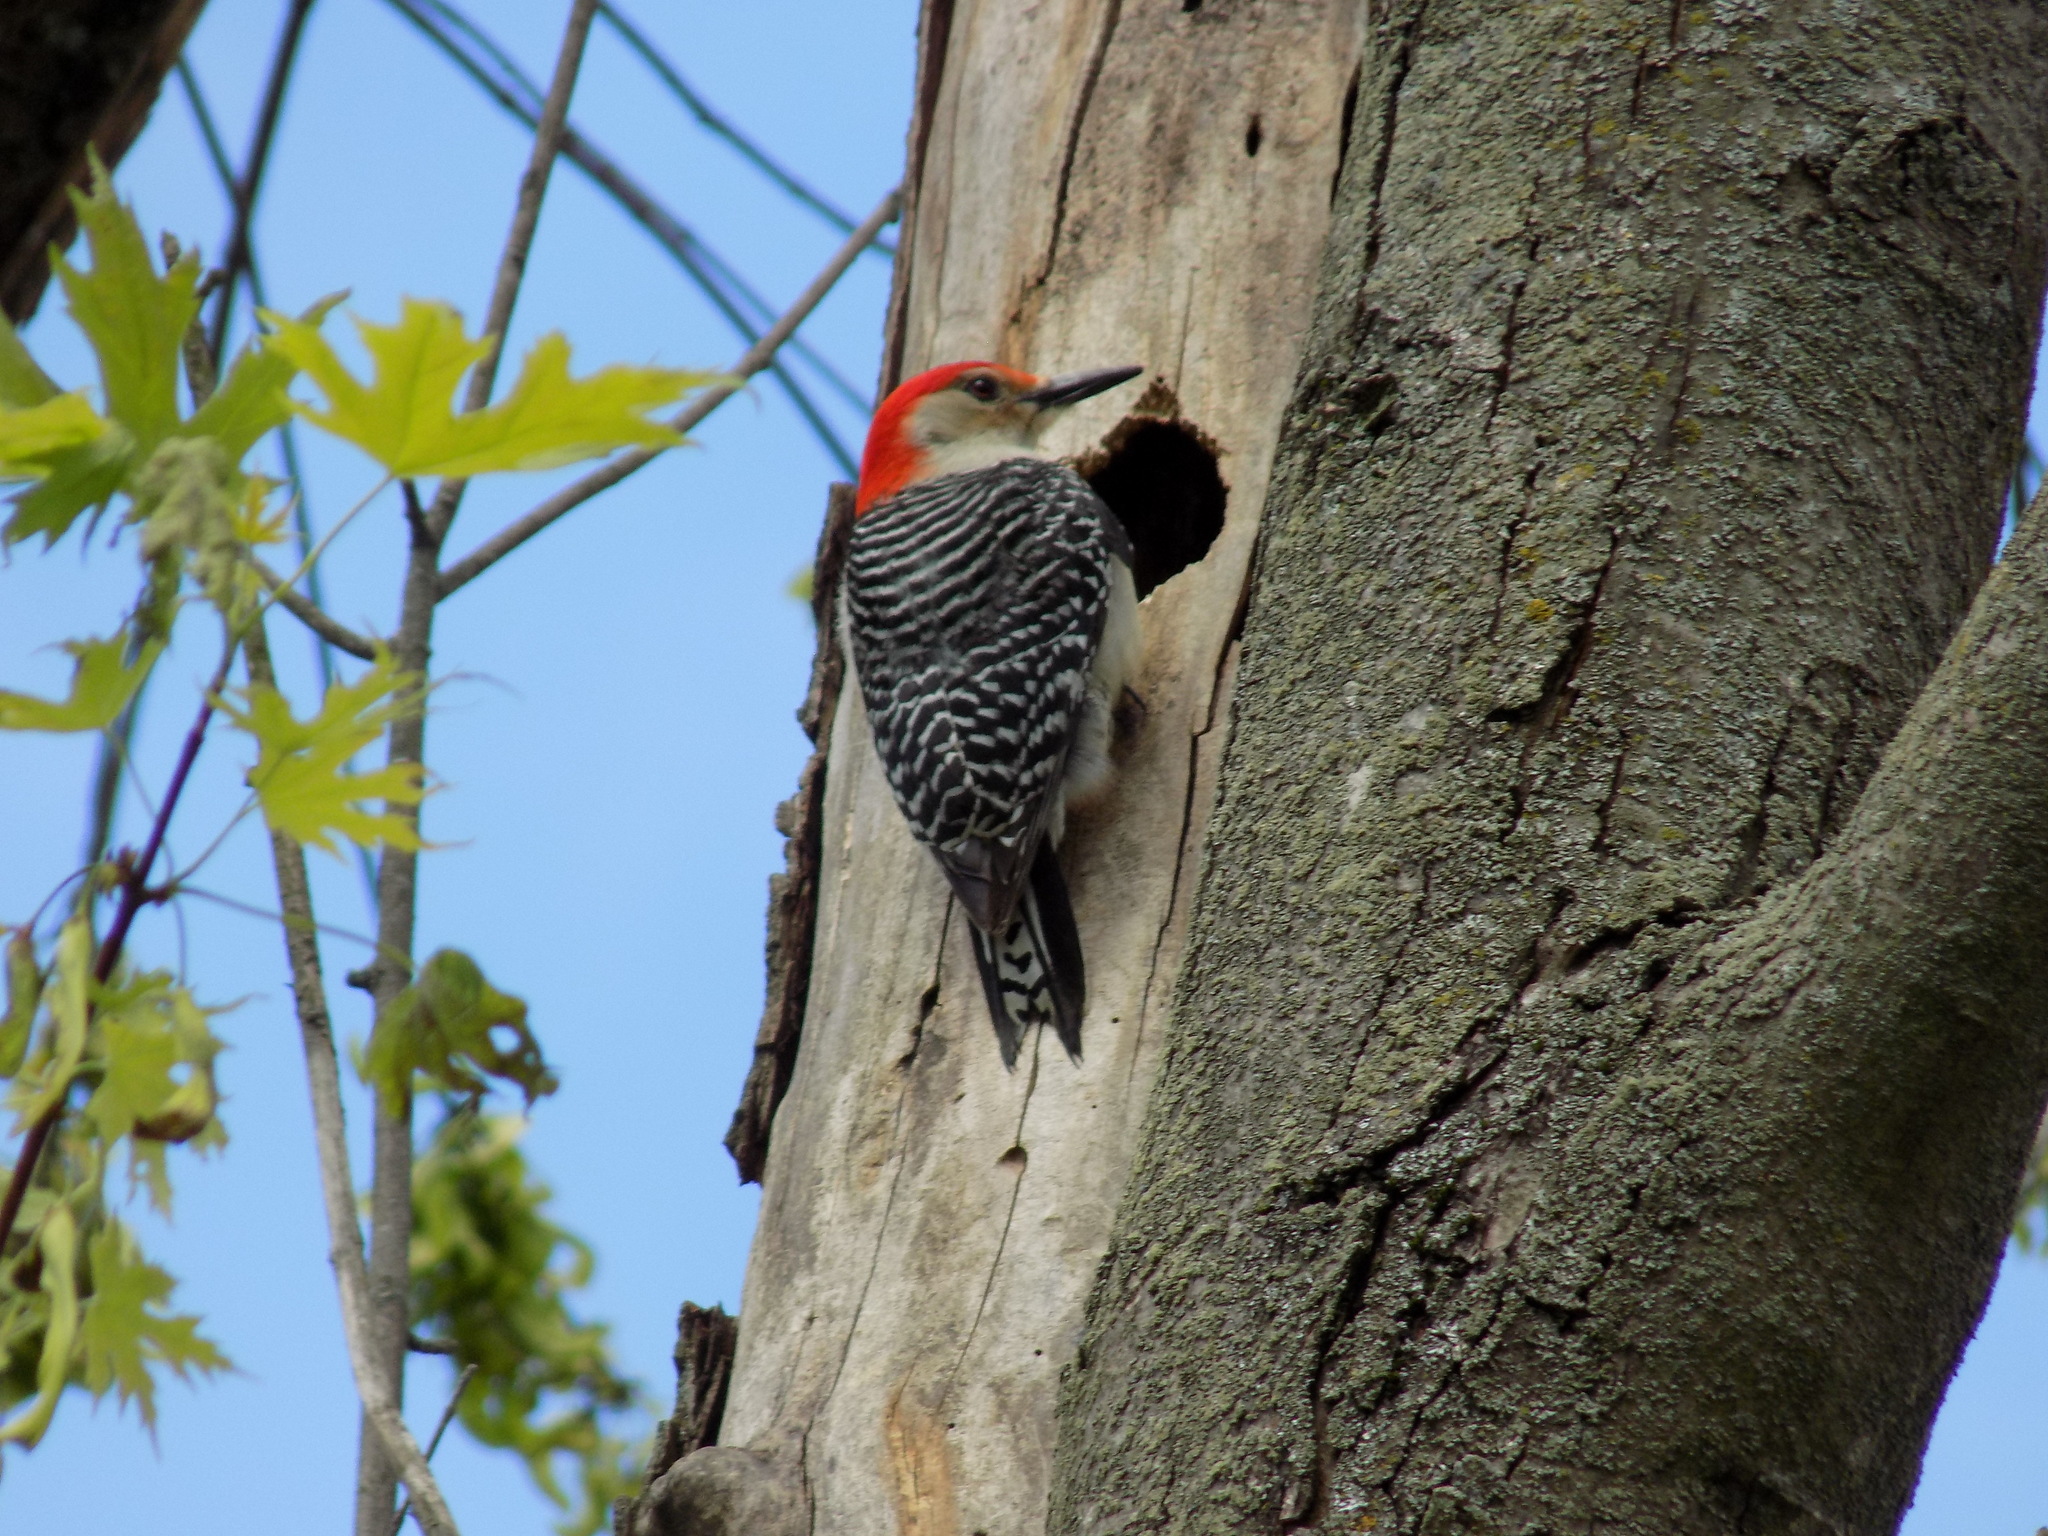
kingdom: Animalia
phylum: Chordata
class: Aves
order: Piciformes
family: Picidae
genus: Melanerpes
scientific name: Melanerpes carolinus
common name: Red-bellied woodpecker
